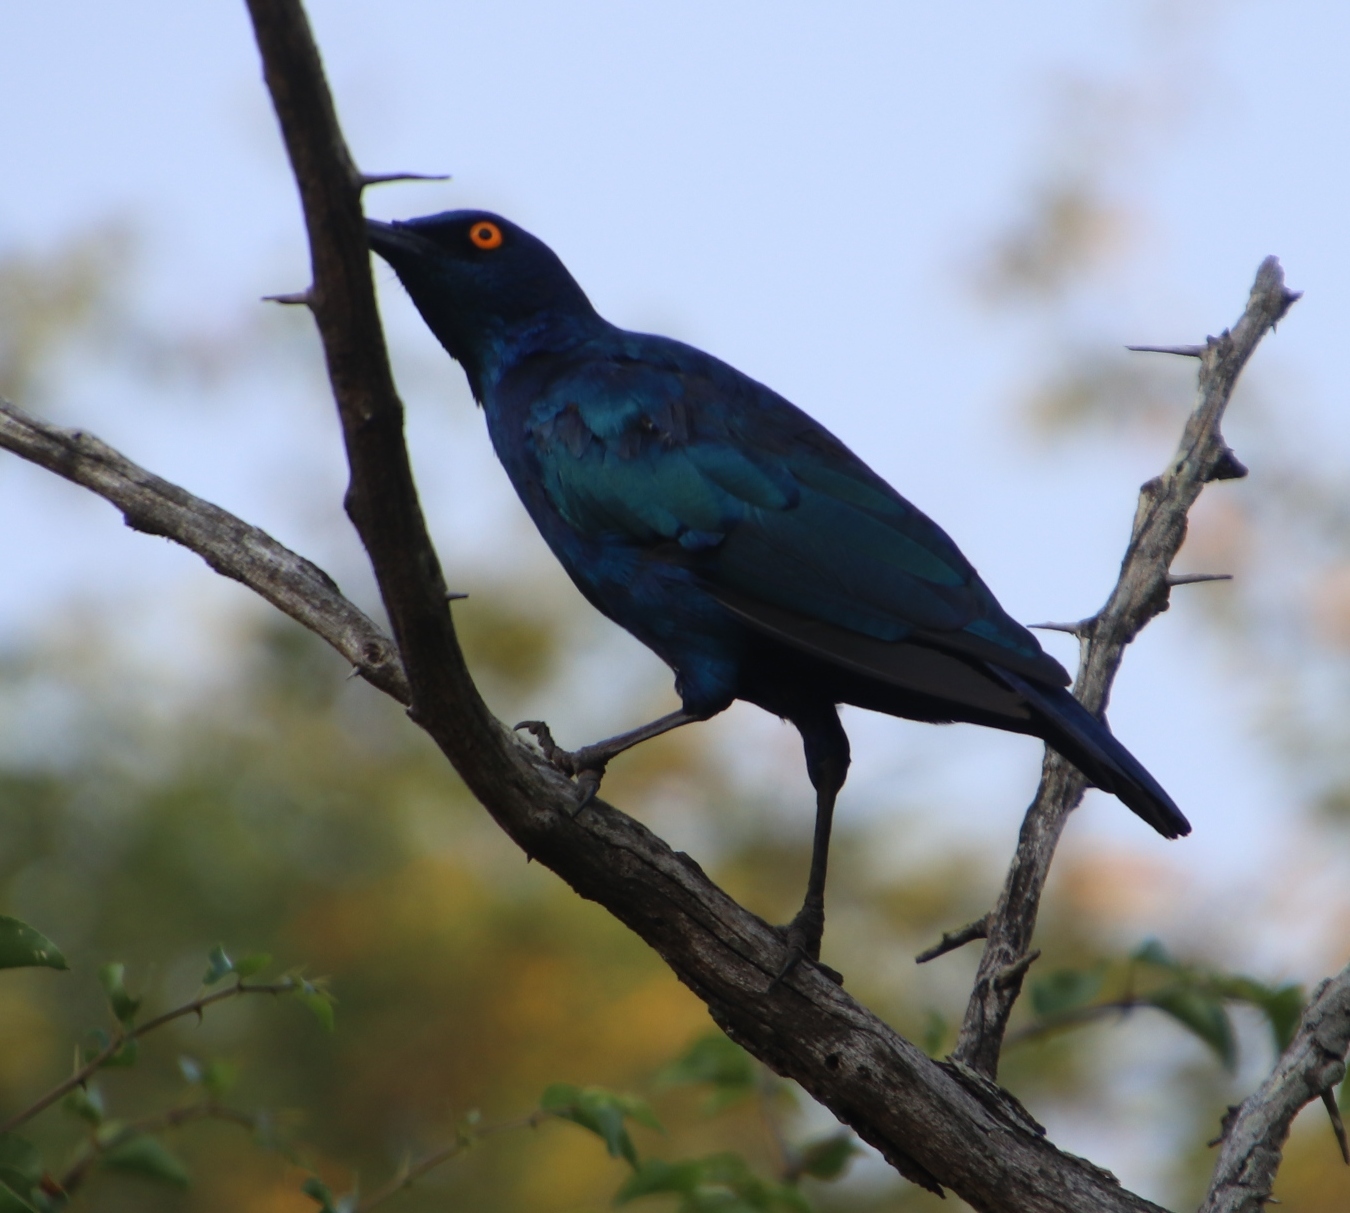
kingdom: Animalia
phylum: Chordata
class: Aves
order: Passeriformes
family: Sturnidae
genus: Lamprotornis
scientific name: Lamprotornis nitens
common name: Cape starling
